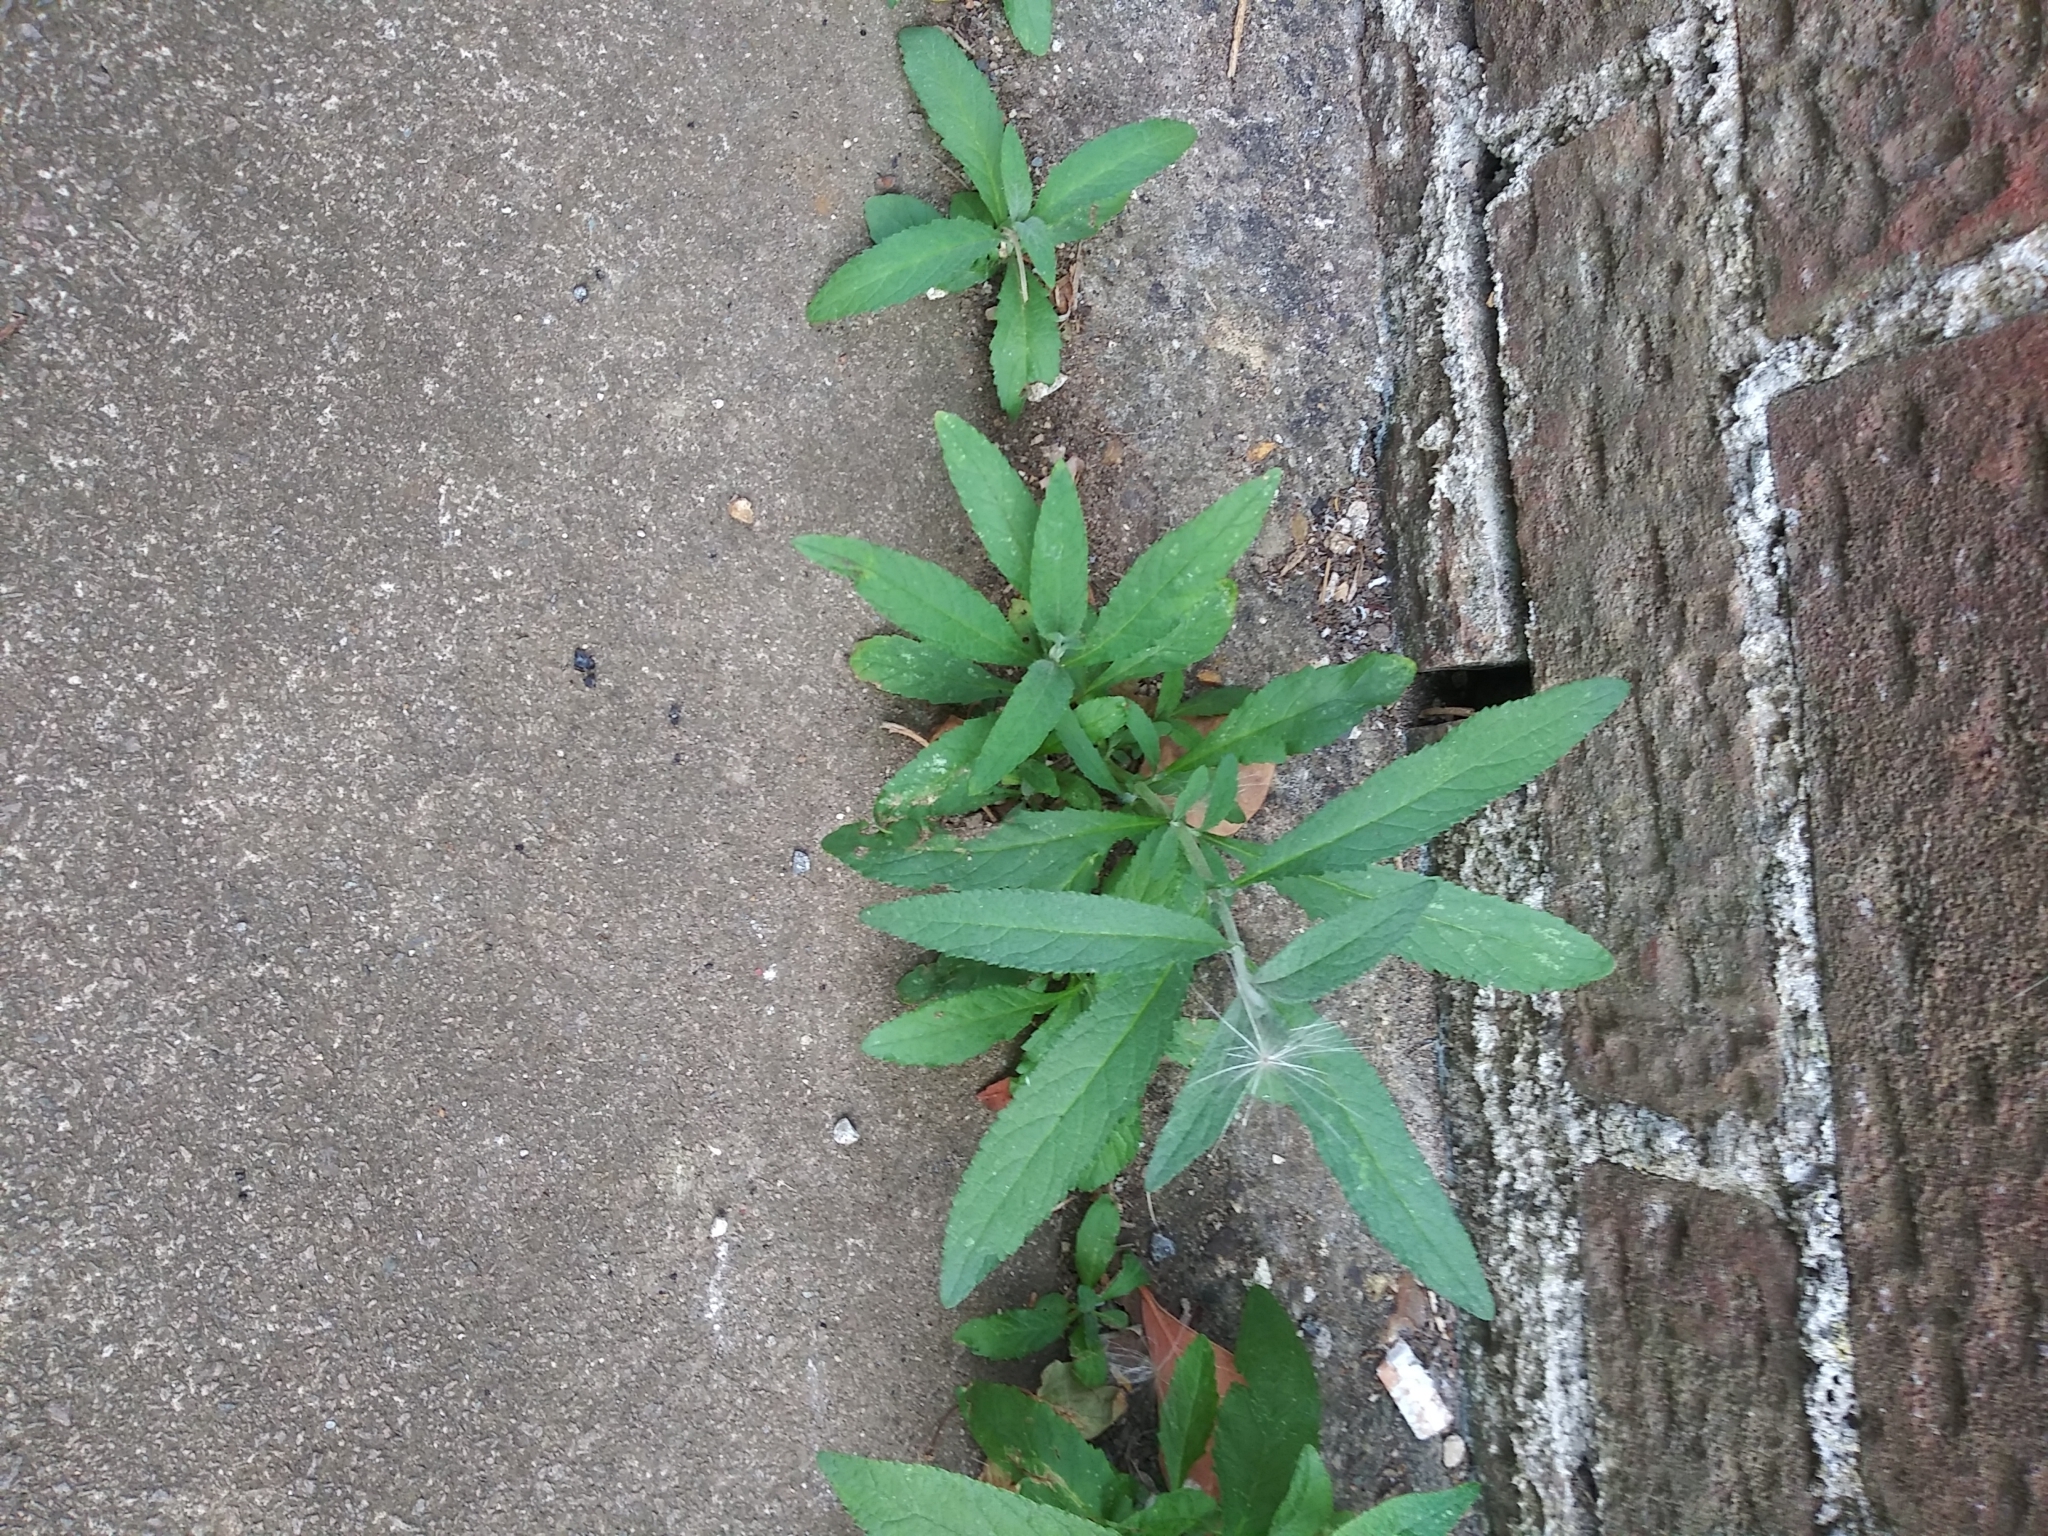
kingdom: Plantae
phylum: Tracheophyta
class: Magnoliopsida
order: Lamiales
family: Scrophulariaceae
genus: Buddleja
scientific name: Buddleja davidii
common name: Butterfly-bush
